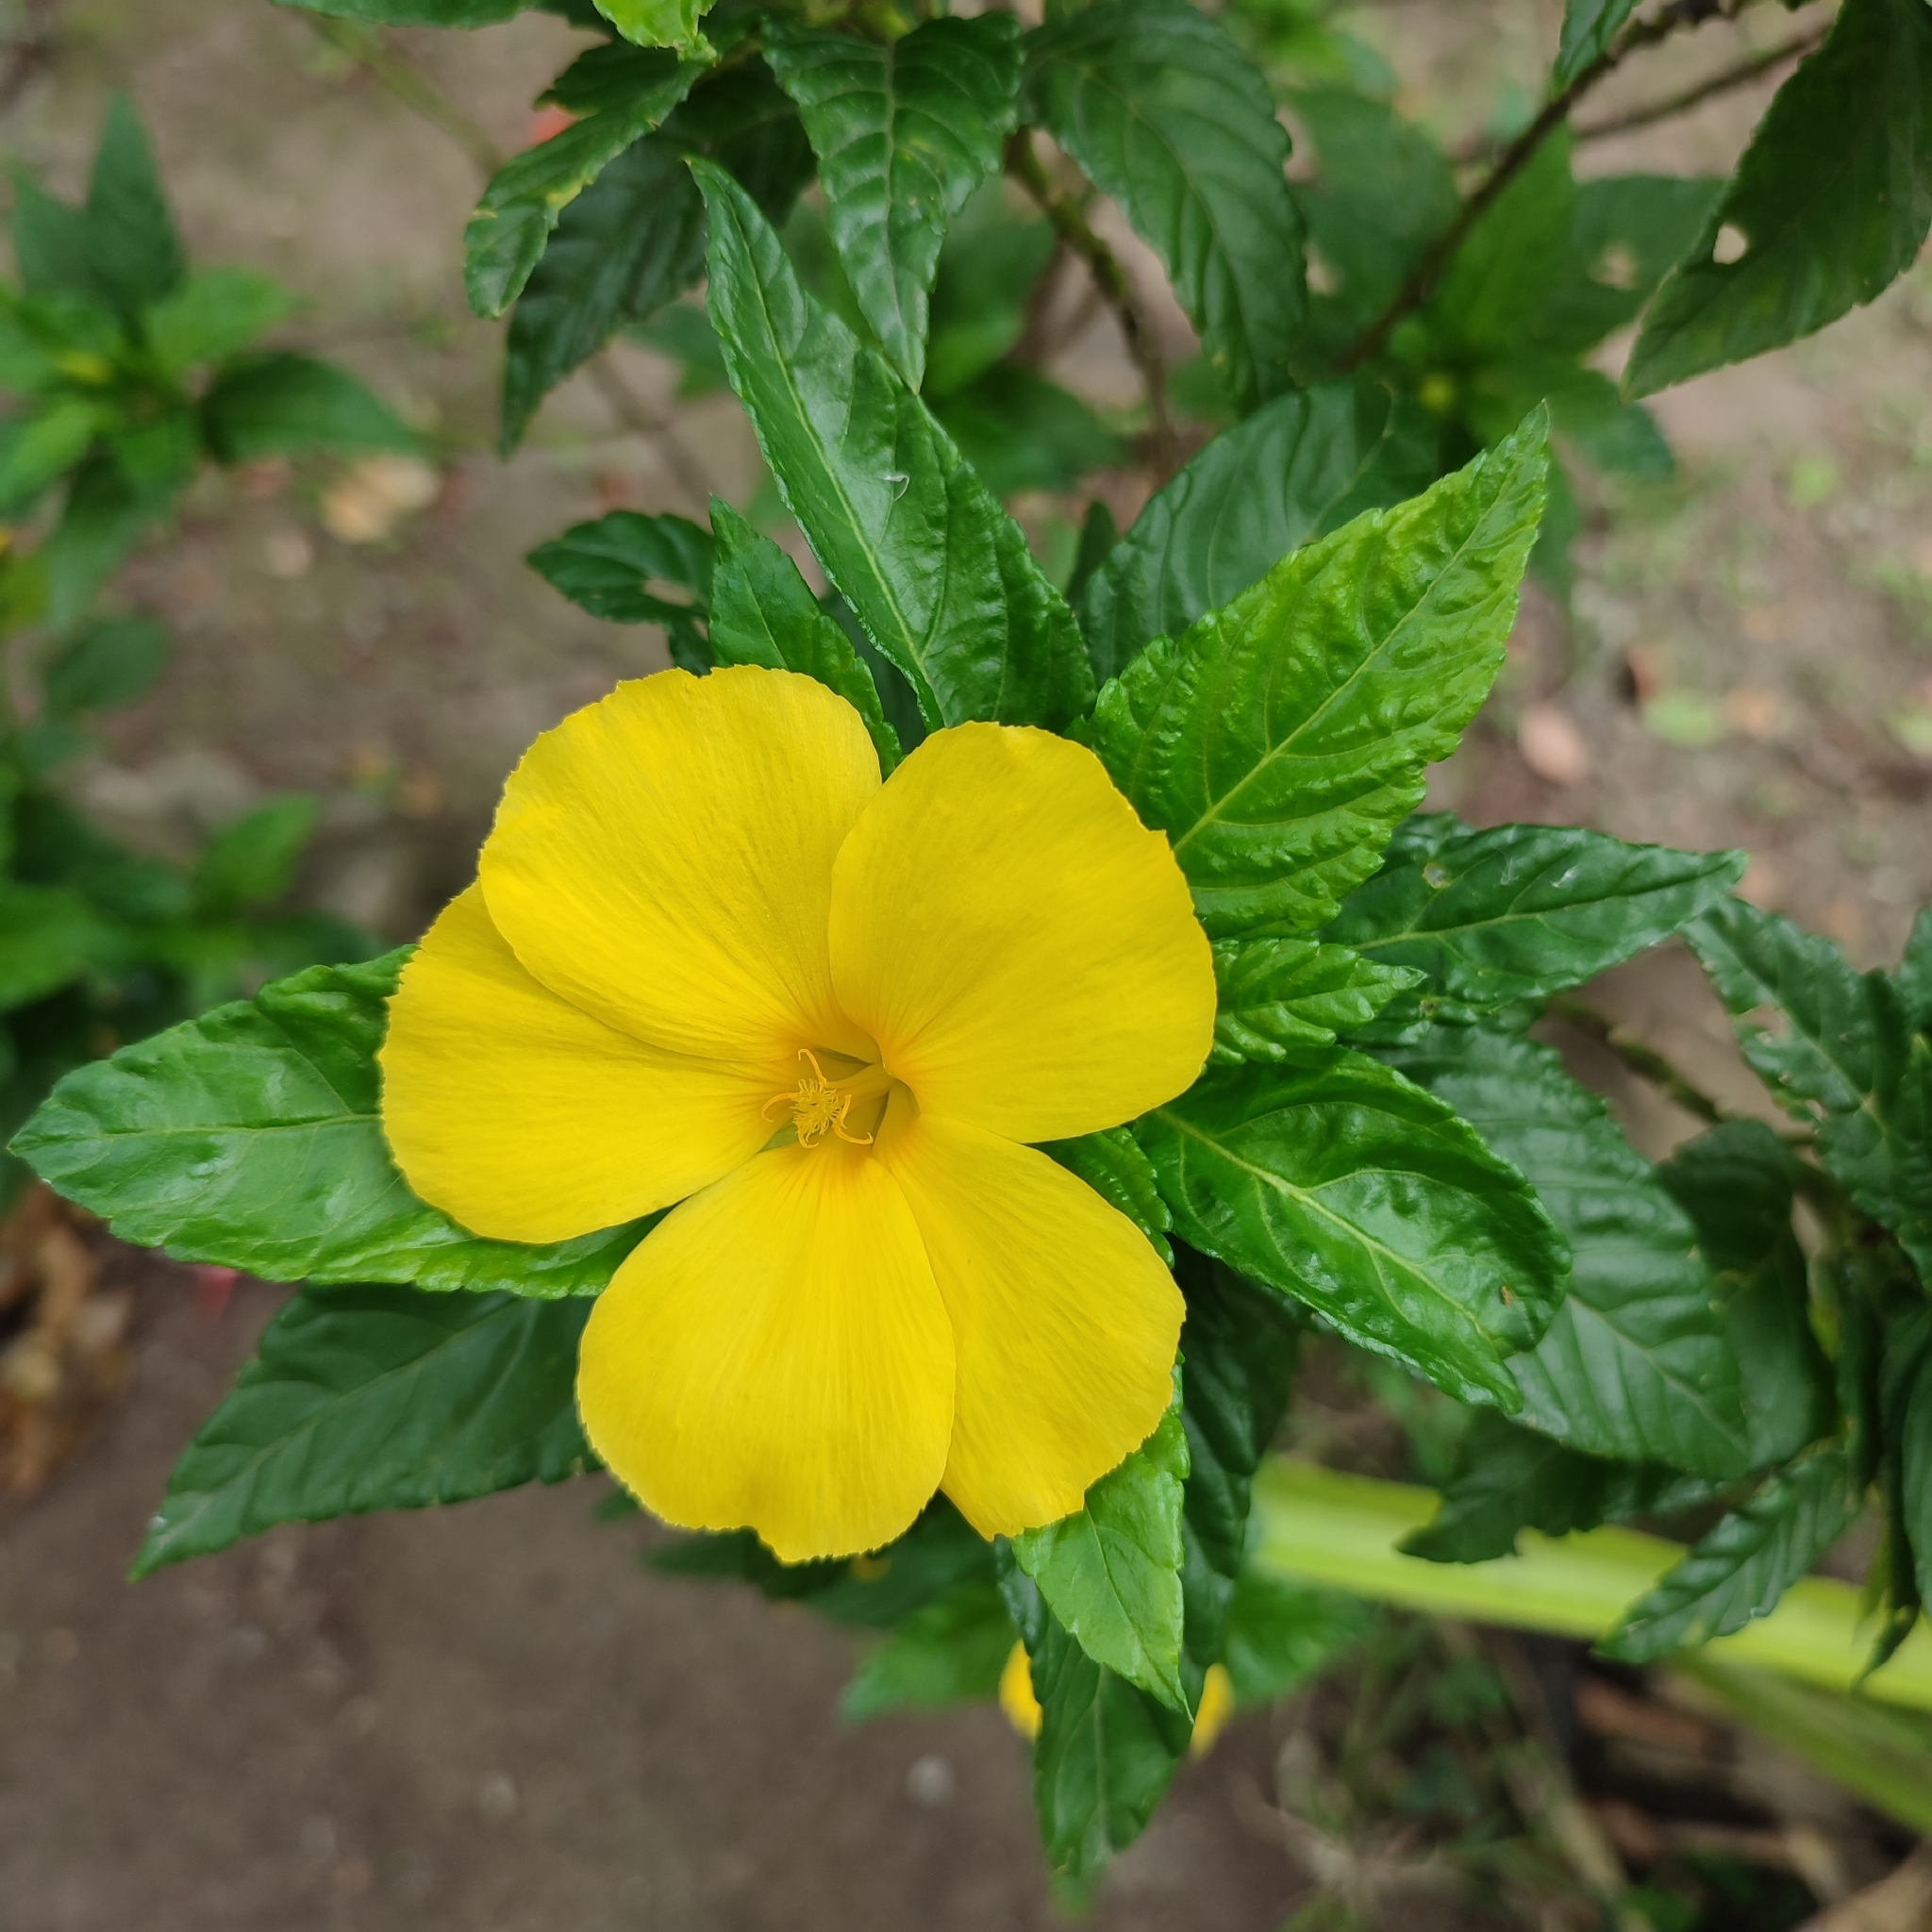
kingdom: Plantae
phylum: Tracheophyta
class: Magnoliopsida
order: Malpighiales
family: Turneraceae
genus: Turnera
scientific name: Turnera ulmifolia
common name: Ramgoat dashalong
